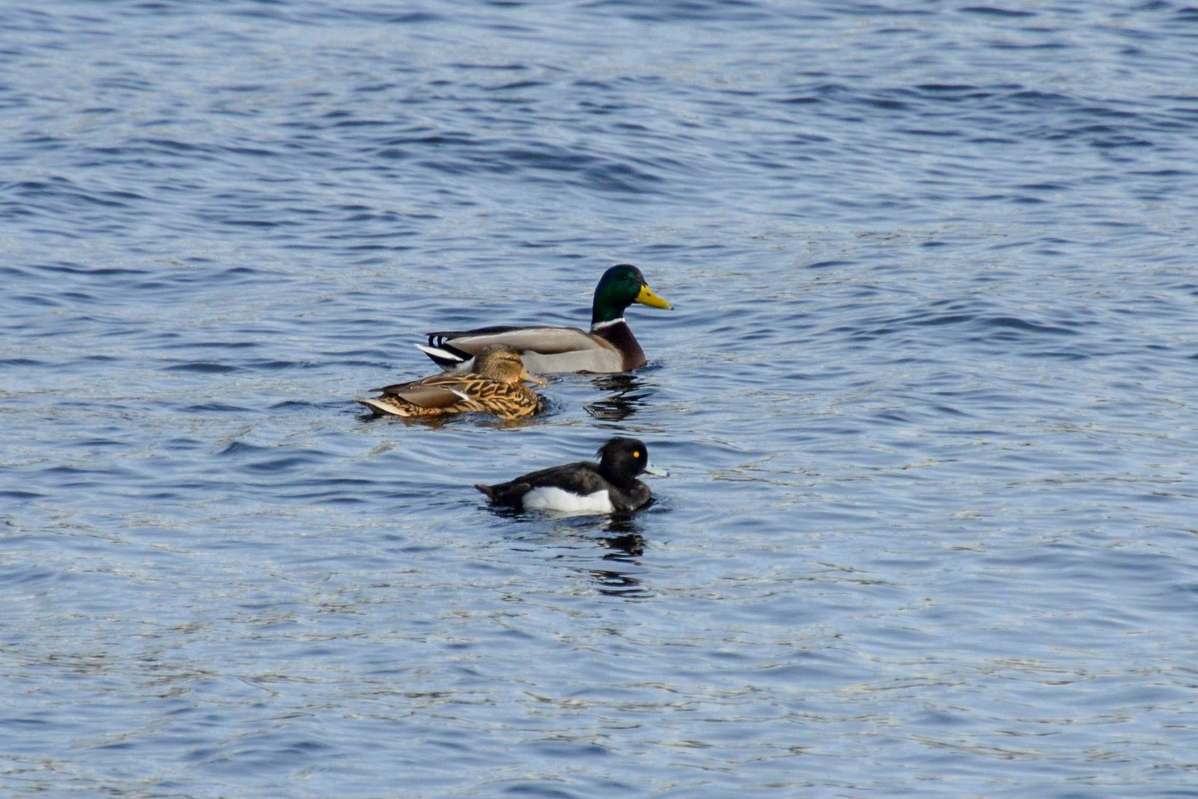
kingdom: Animalia
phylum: Chordata
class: Aves
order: Anseriformes
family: Anatidae
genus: Aythya
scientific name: Aythya fuligula
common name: Tufted duck
